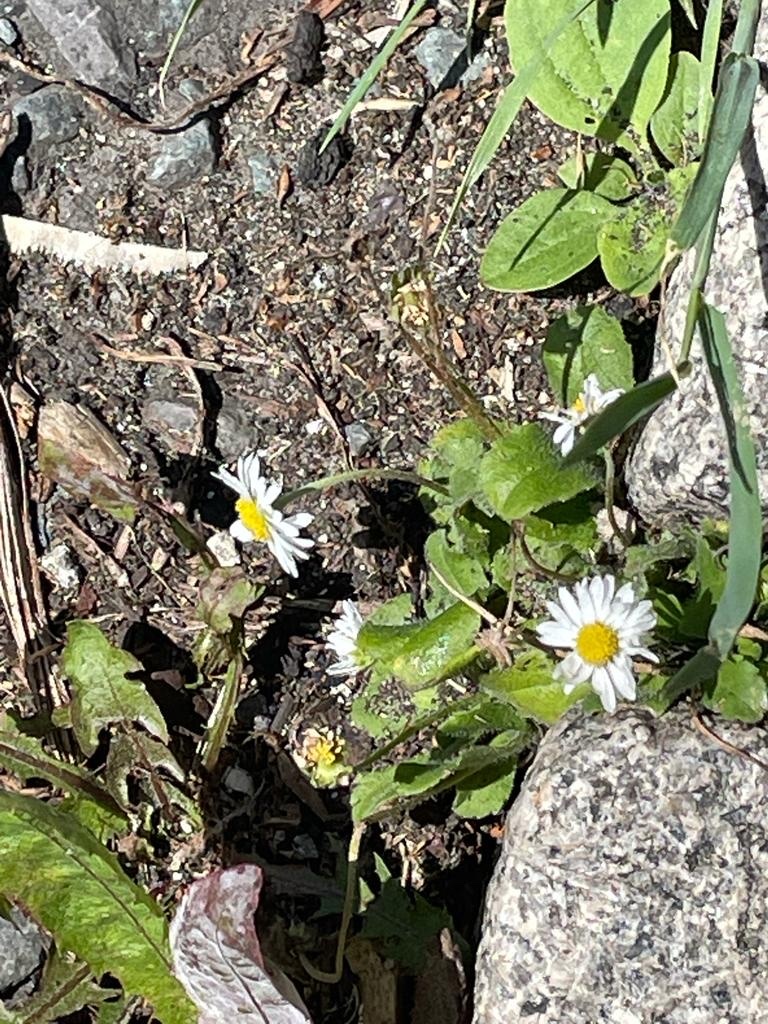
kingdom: Plantae
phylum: Tracheophyta
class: Magnoliopsida
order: Asterales
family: Asteraceae
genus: Bellis
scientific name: Bellis perennis
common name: Lawndaisy
